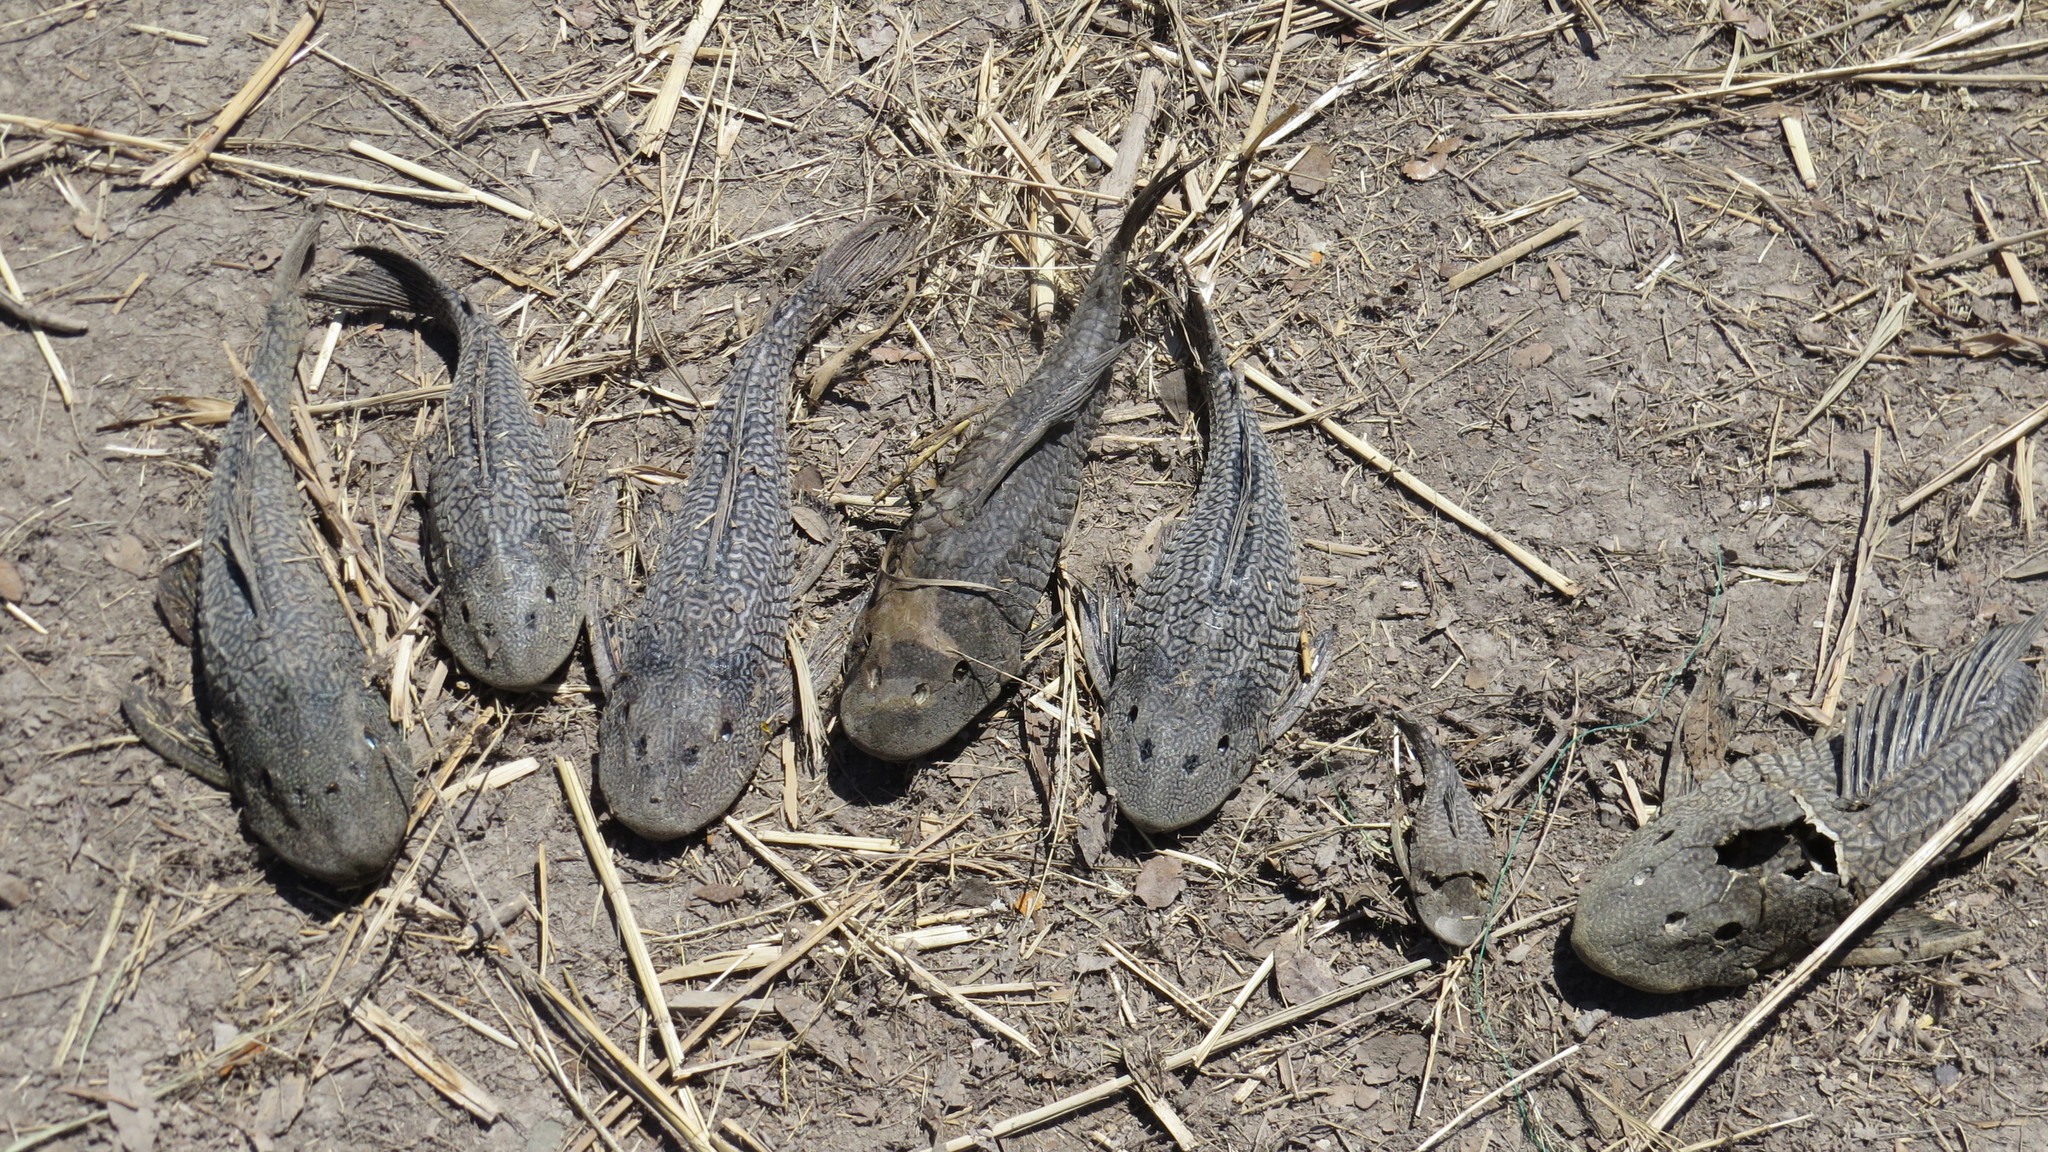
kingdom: Animalia
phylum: Chordata
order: Siluriformes
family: Loricariidae
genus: Pterygoplichthys
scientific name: Pterygoplichthys
